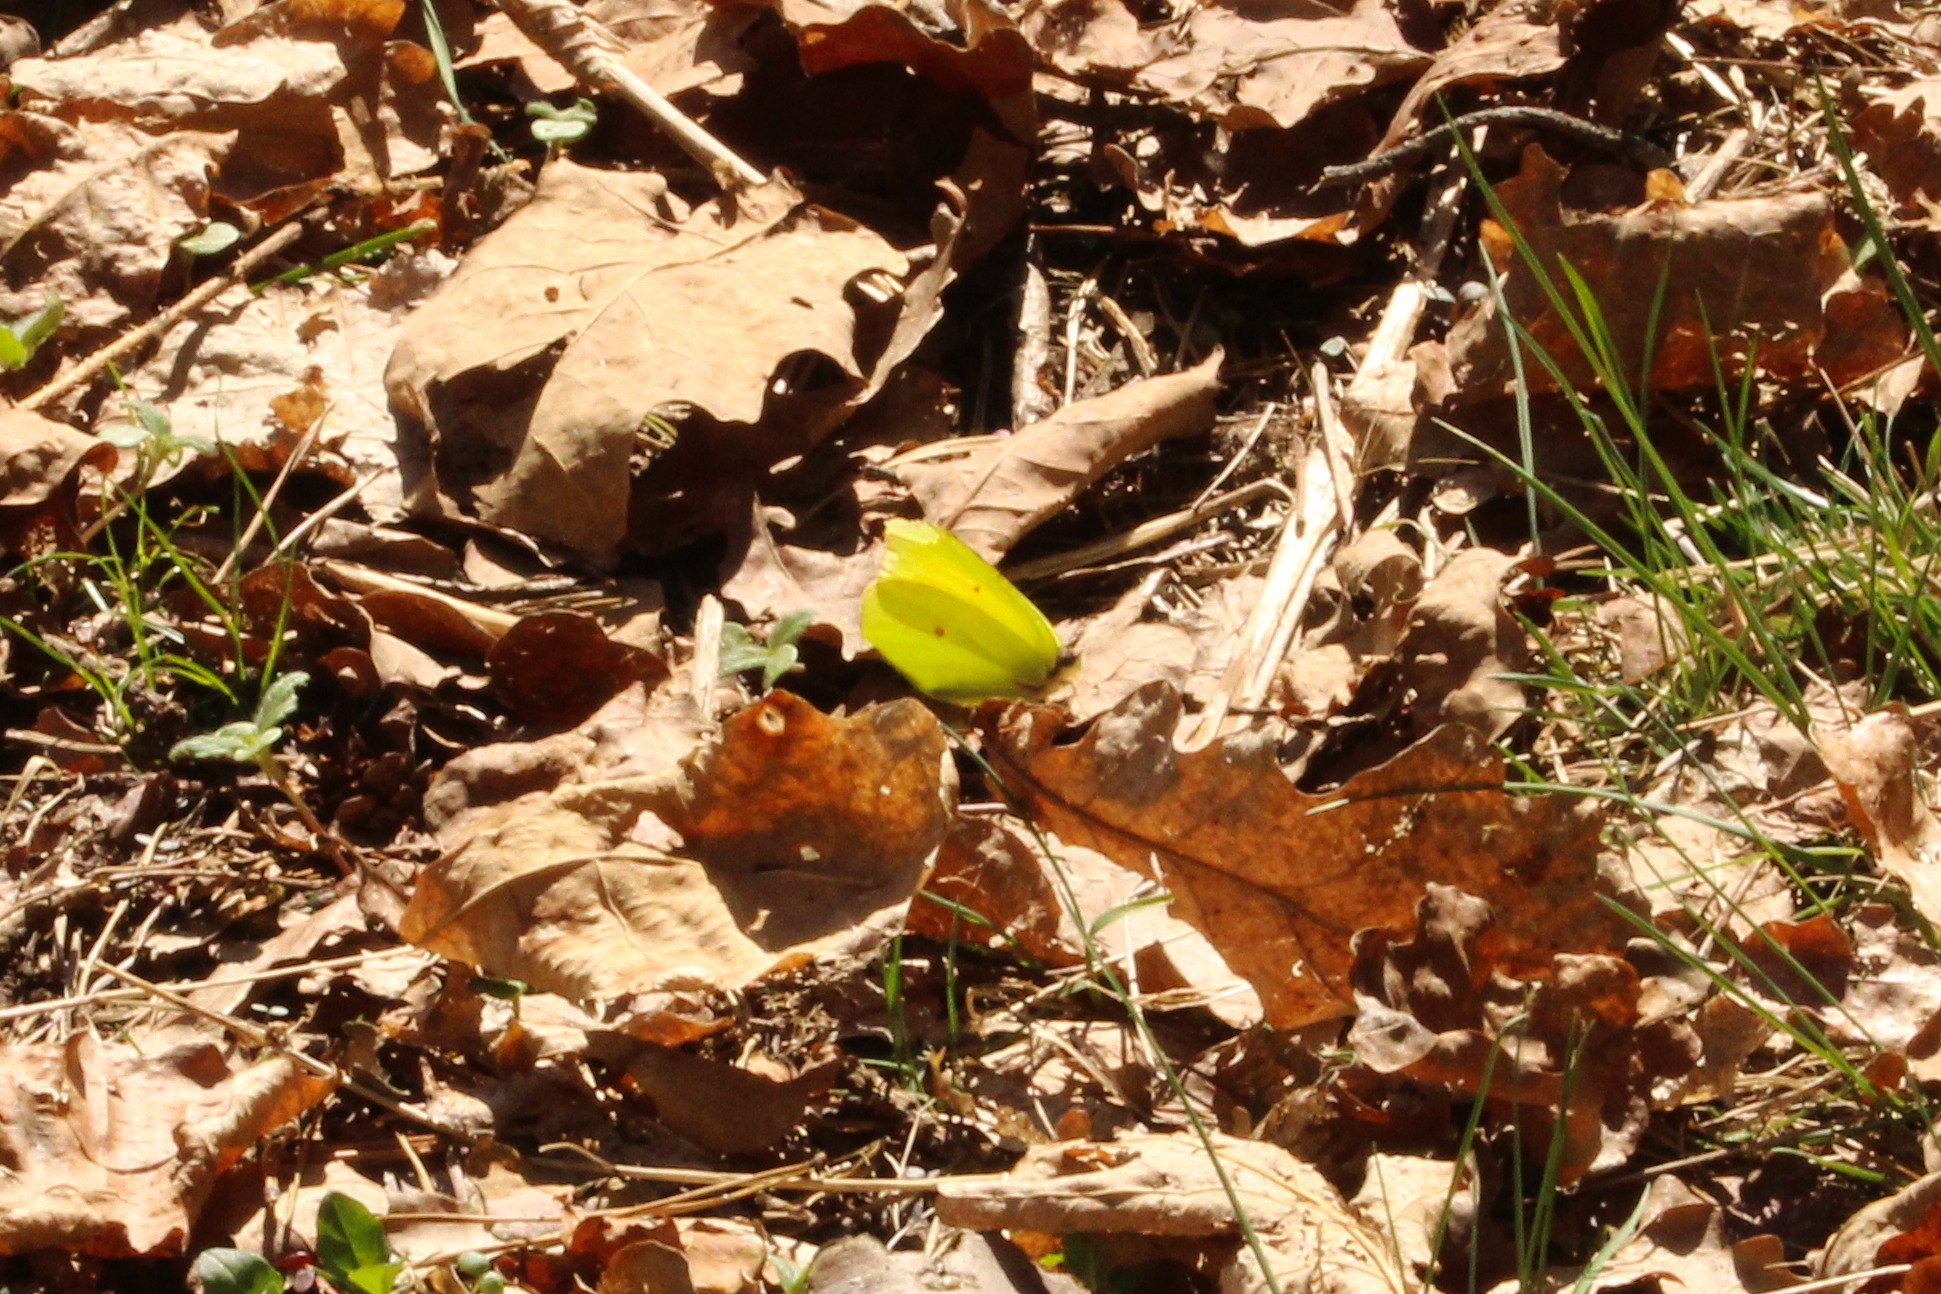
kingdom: Animalia
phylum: Arthropoda
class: Insecta
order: Lepidoptera
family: Pieridae
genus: Gonepteryx
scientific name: Gonepteryx rhamni
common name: Brimstone
